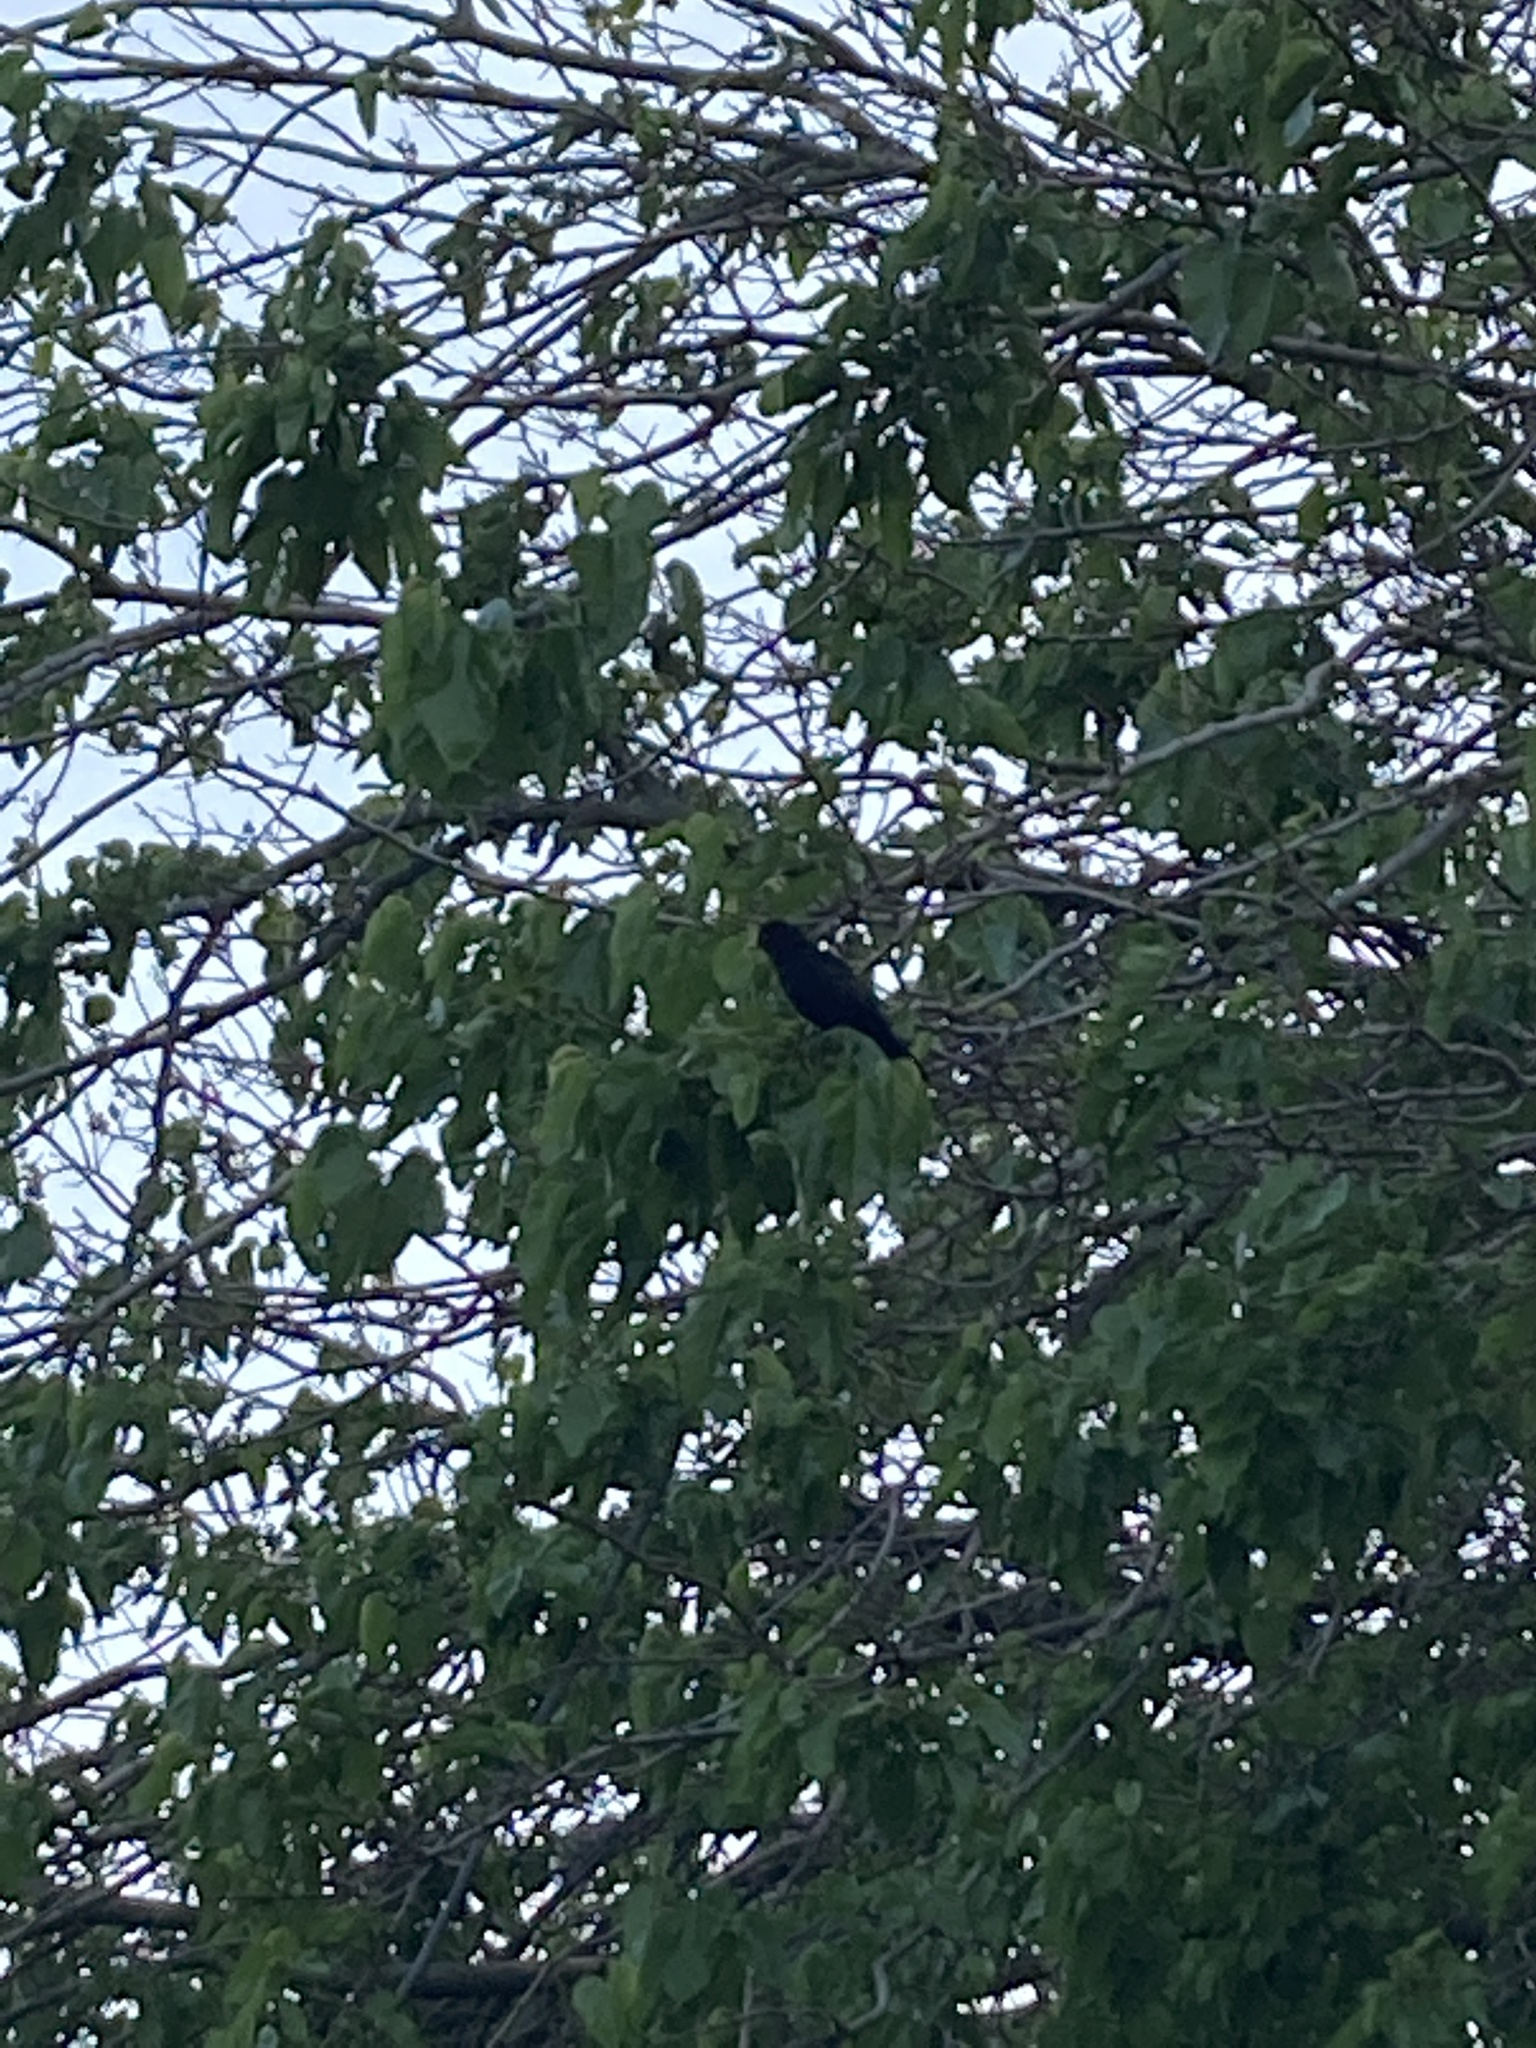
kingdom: Animalia
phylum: Chordata
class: Aves
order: Passeriformes
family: Turdidae
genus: Turdus
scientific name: Turdus merula
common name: Common blackbird
